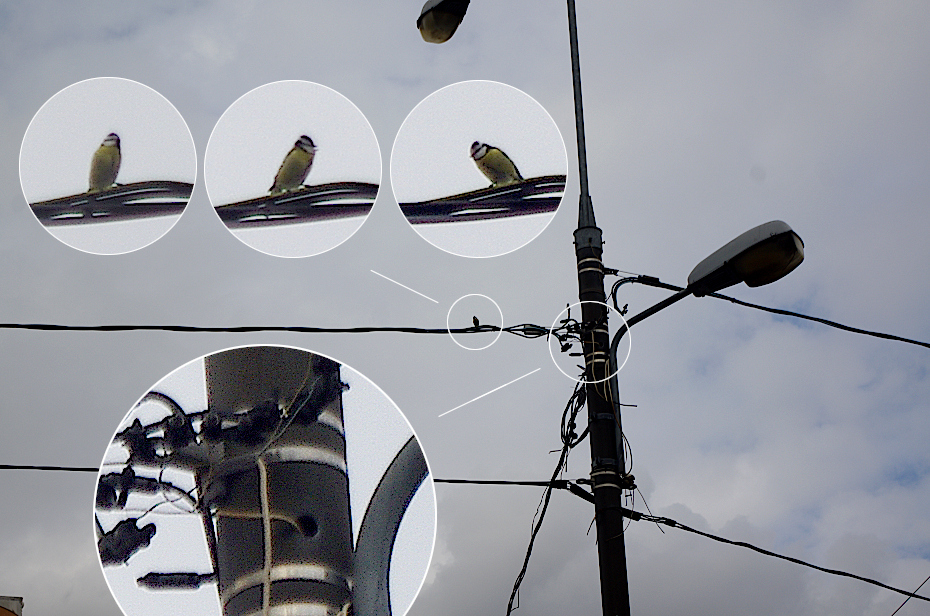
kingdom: Animalia
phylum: Chordata
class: Aves
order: Passeriformes
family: Paridae
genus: Cyanistes
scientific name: Cyanistes caeruleus
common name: Eurasian blue tit
